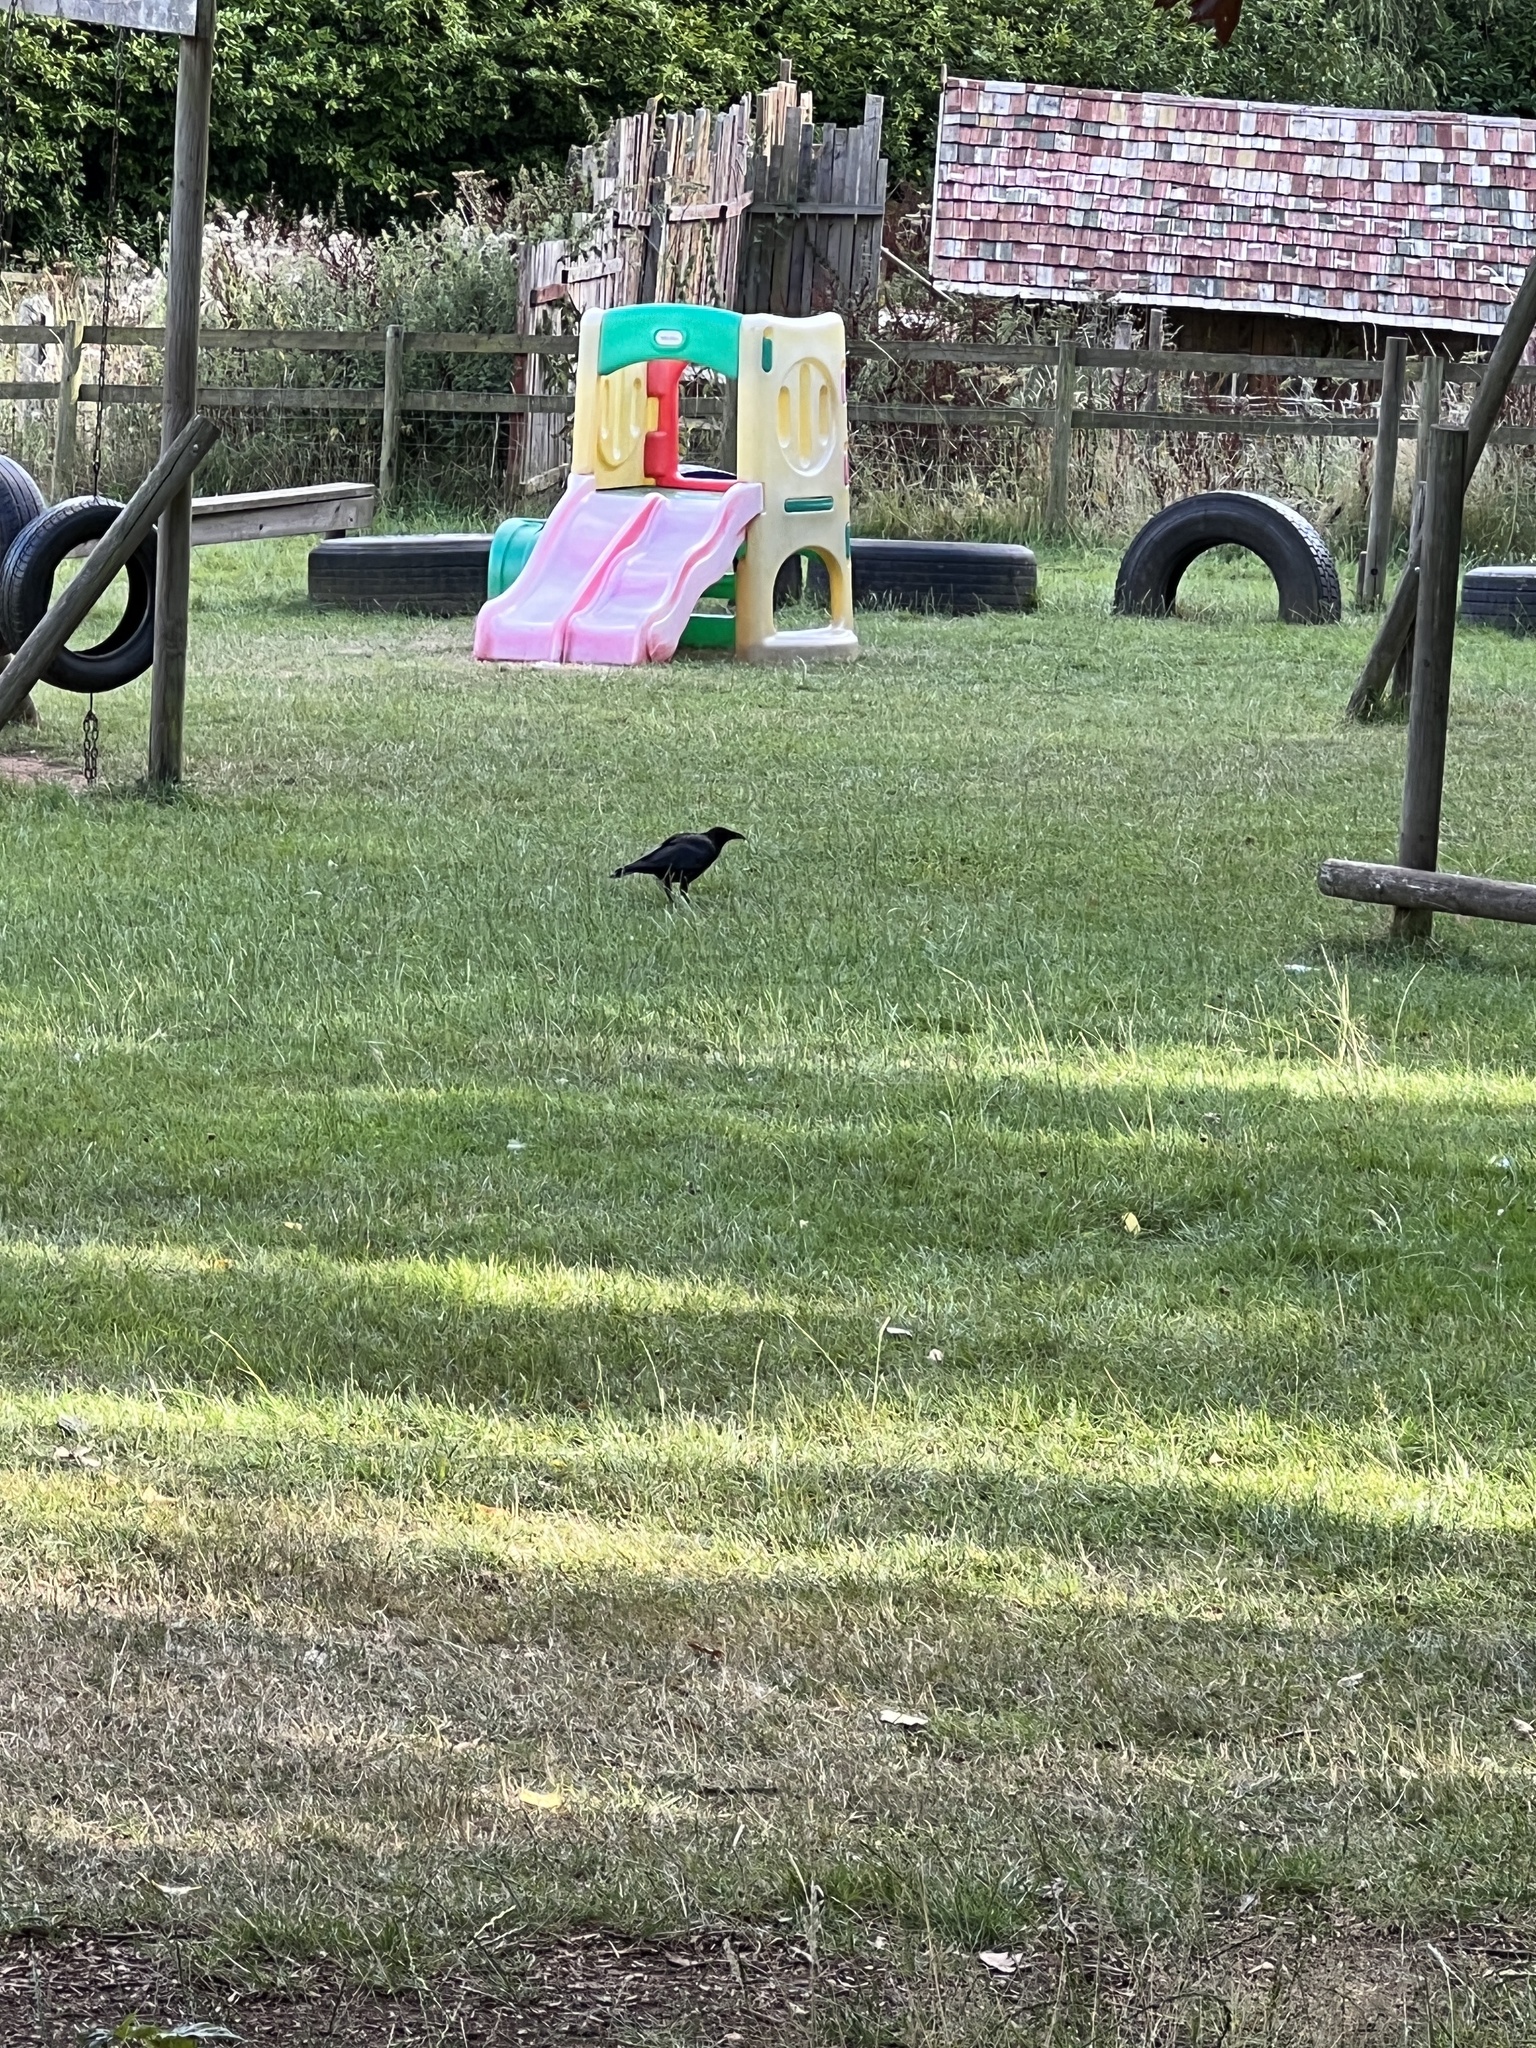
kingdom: Animalia
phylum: Chordata
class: Aves
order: Passeriformes
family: Corvidae
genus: Corvus
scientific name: Corvus corone
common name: Carrion crow
